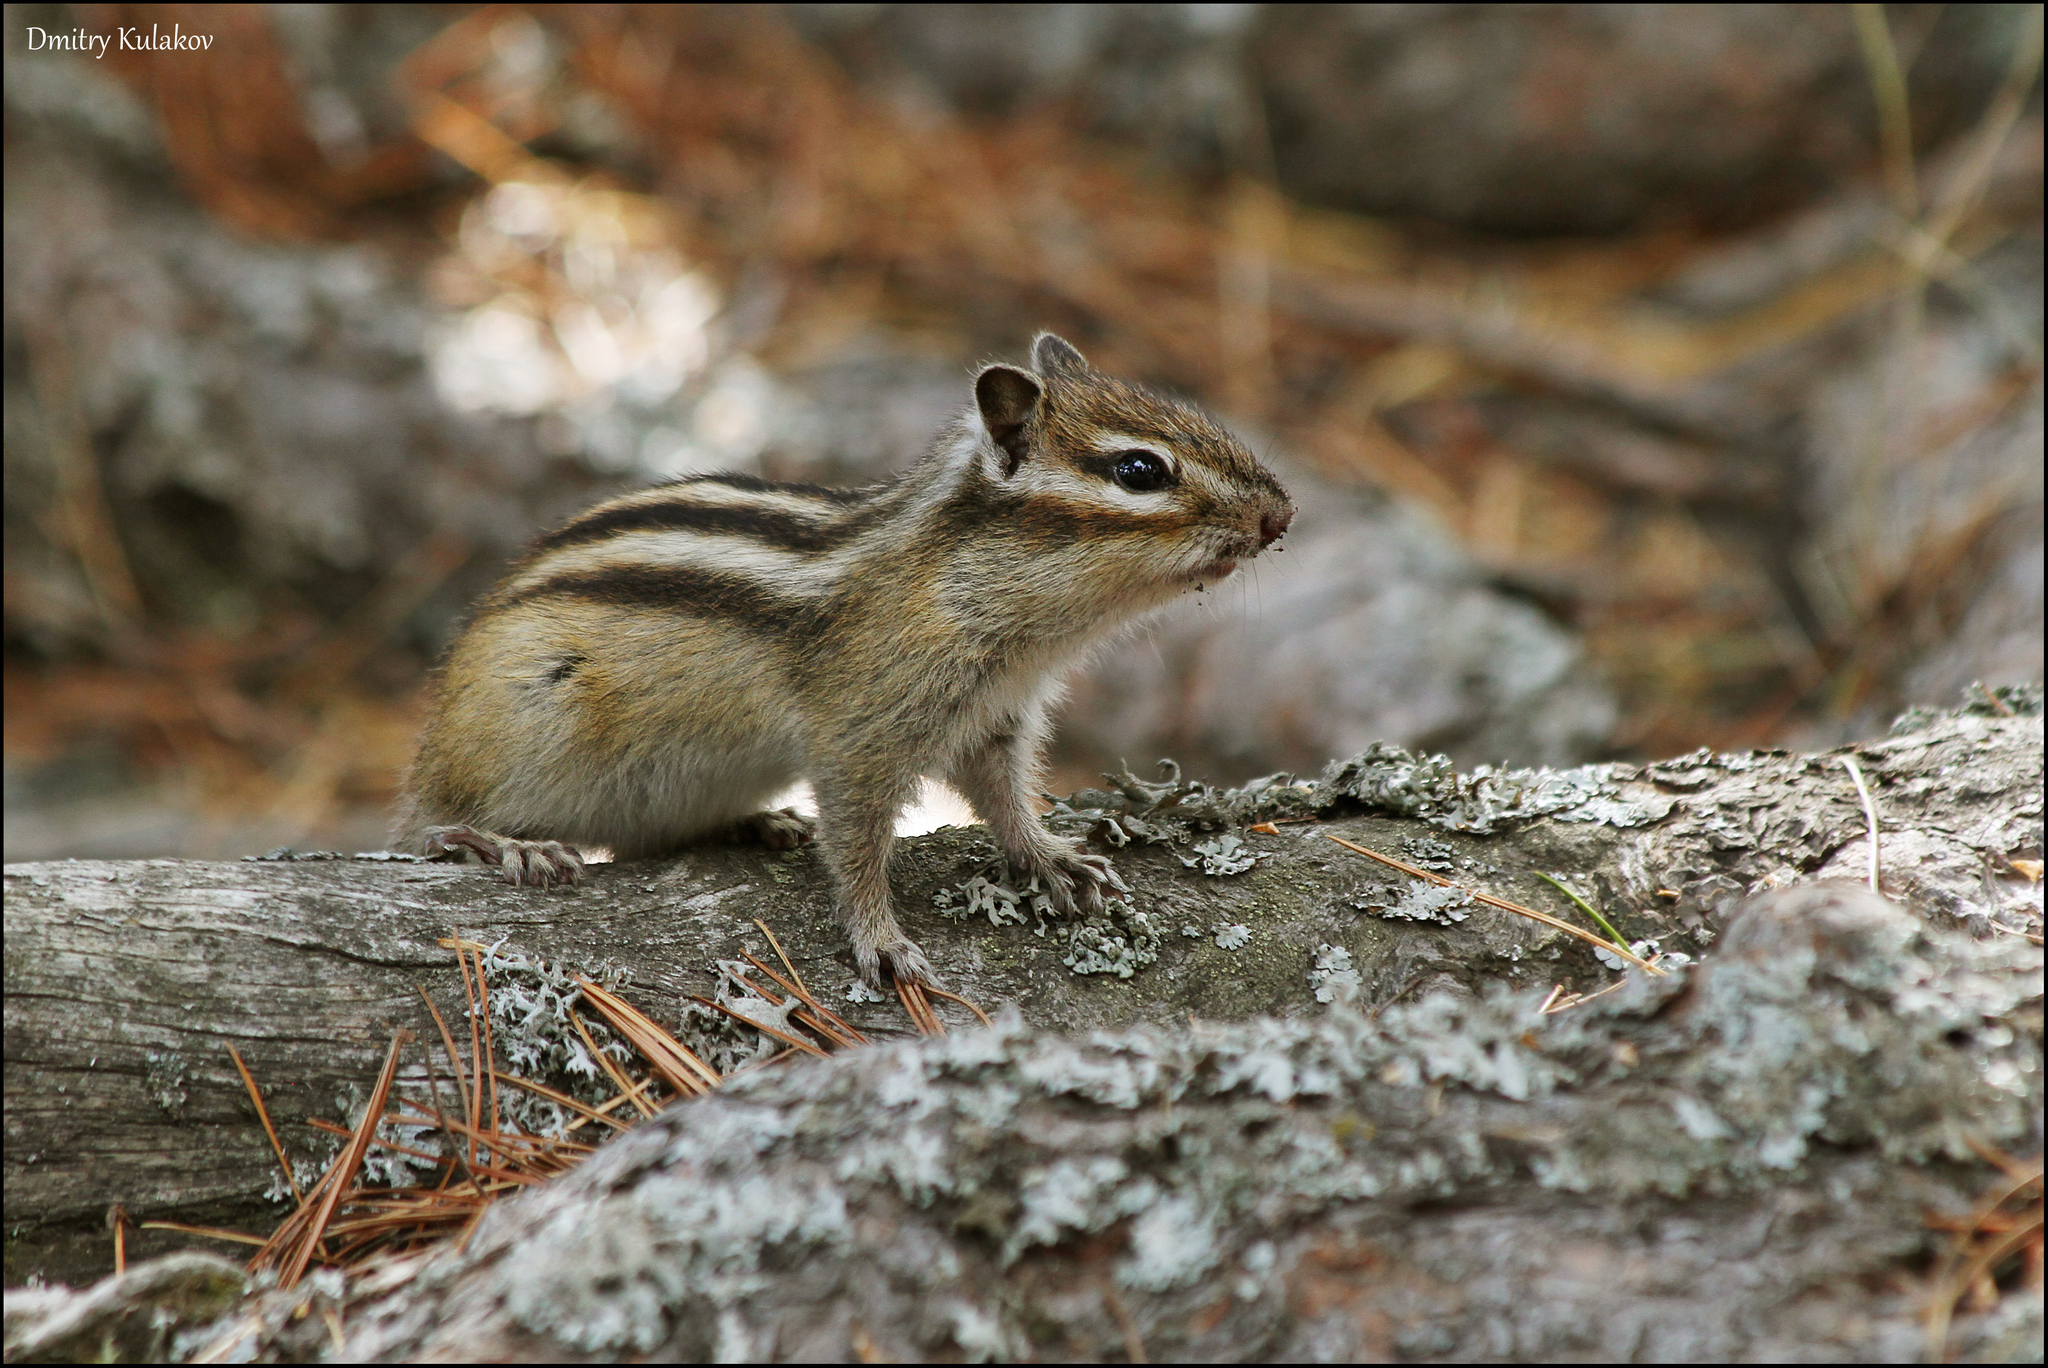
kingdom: Animalia
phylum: Chordata
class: Mammalia
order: Rodentia
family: Sciuridae
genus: Tamias
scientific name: Tamias sibiricus
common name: Siberian chipmunk
